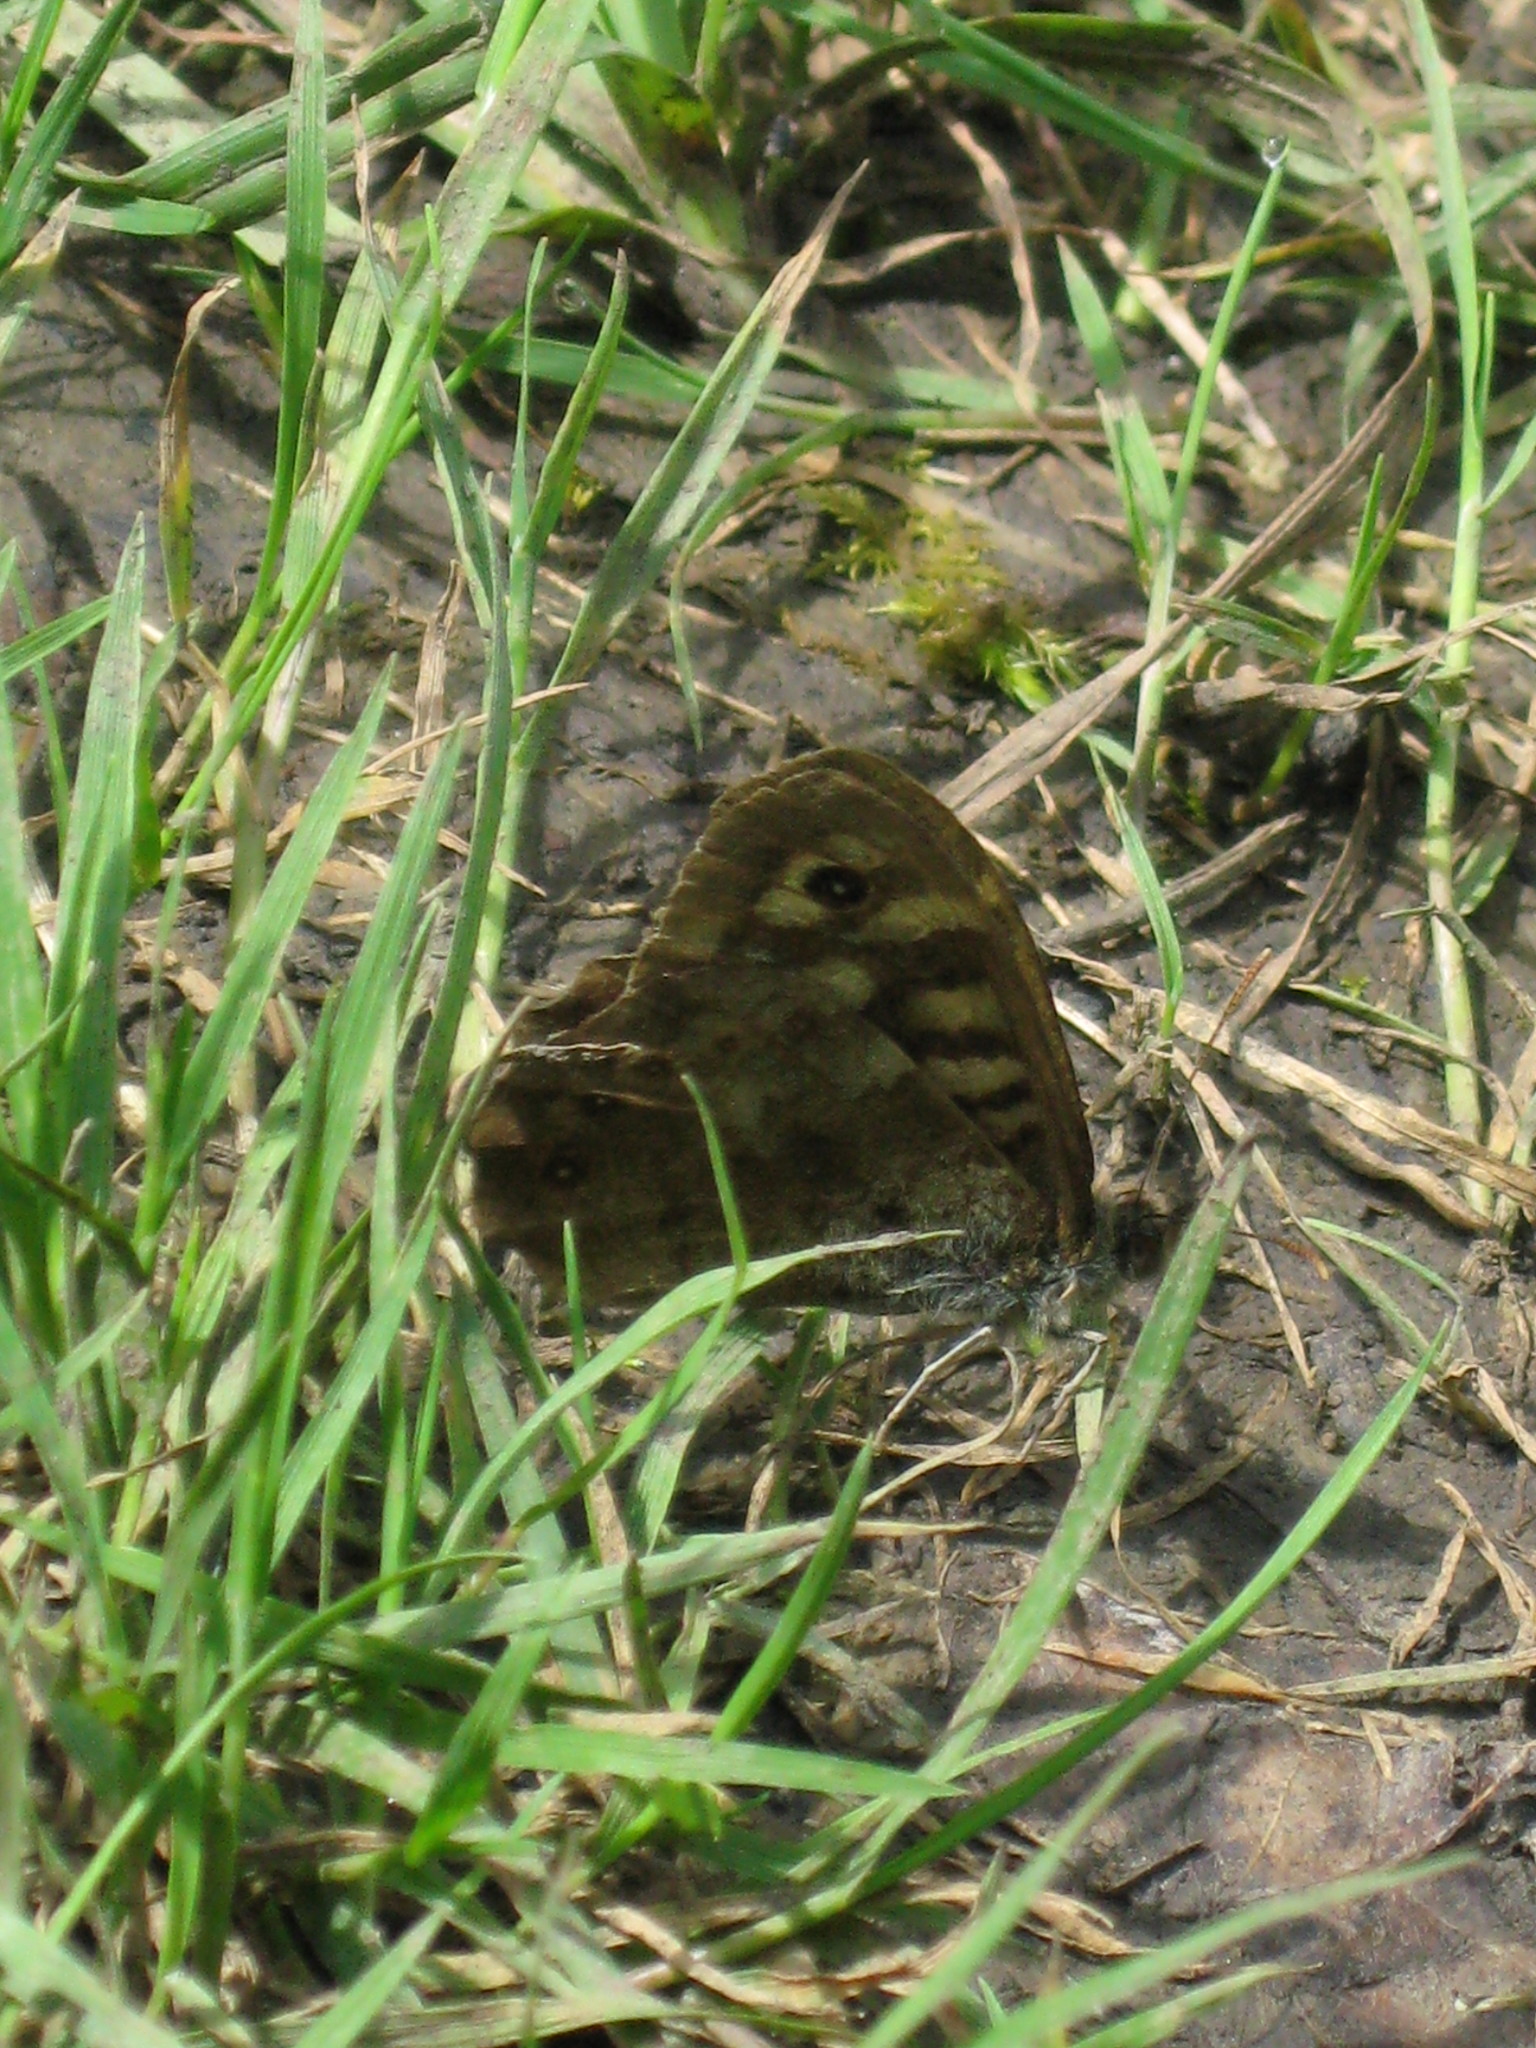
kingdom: Animalia
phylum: Arthropoda
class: Insecta
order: Lepidoptera
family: Nymphalidae
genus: Pararge
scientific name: Pararge aegeria
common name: Speckled wood
